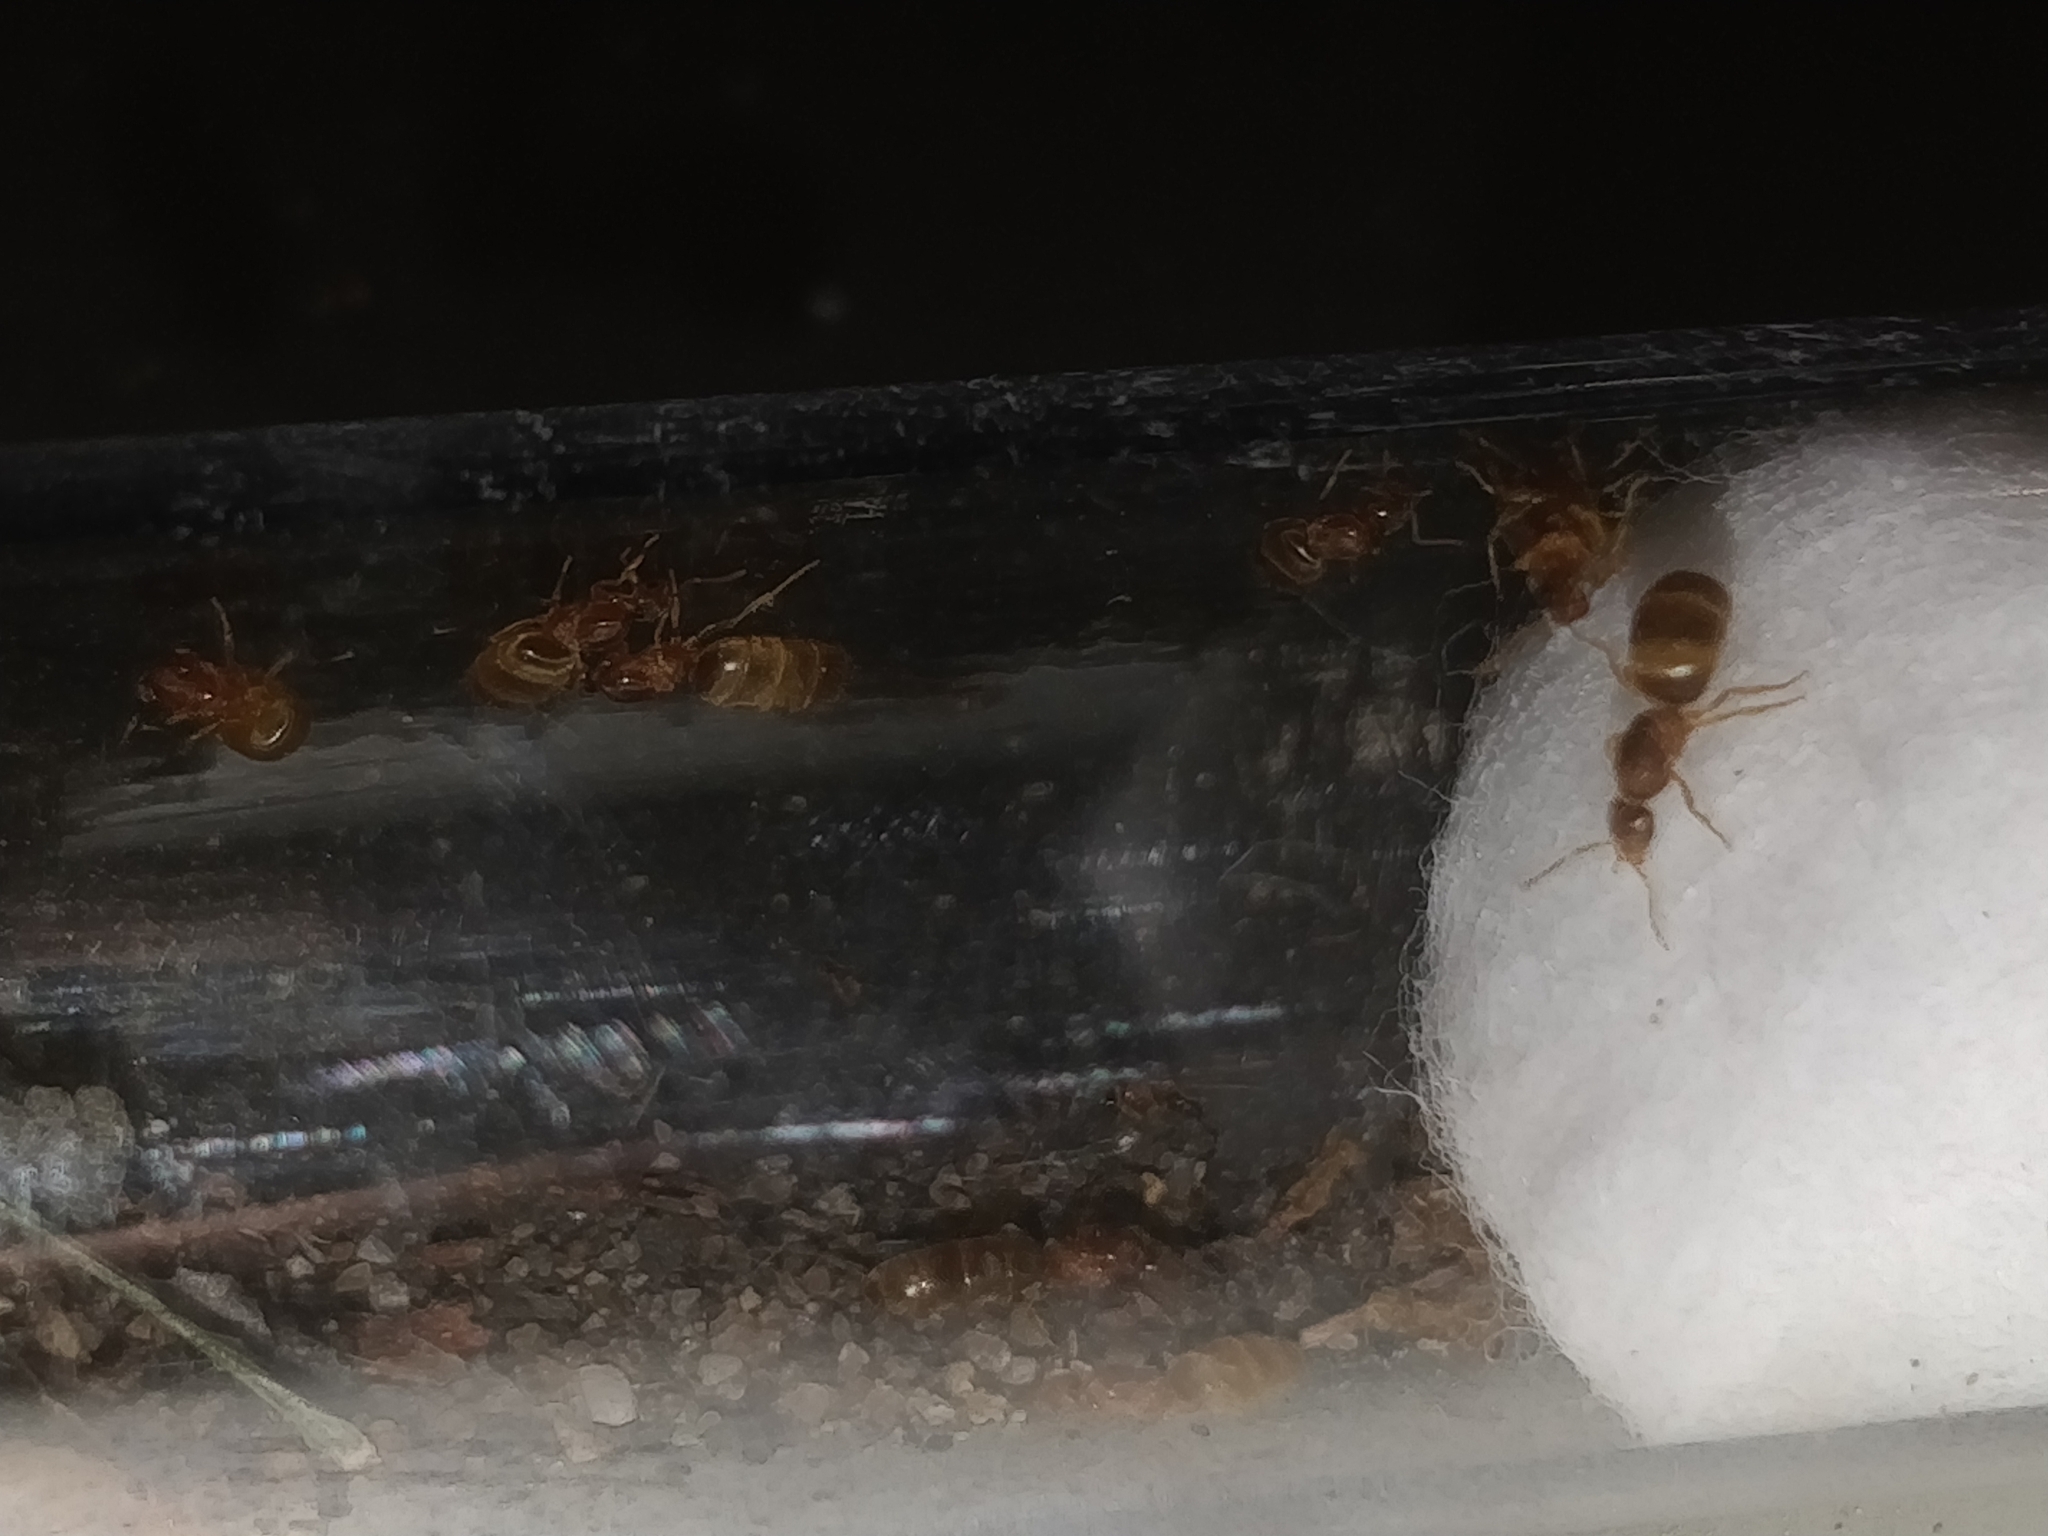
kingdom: Animalia
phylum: Arthropoda
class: Insecta
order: Hymenoptera
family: Formicidae
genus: Brachymyrmex
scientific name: Brachymyrmex depilis
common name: Hairless rover ant
